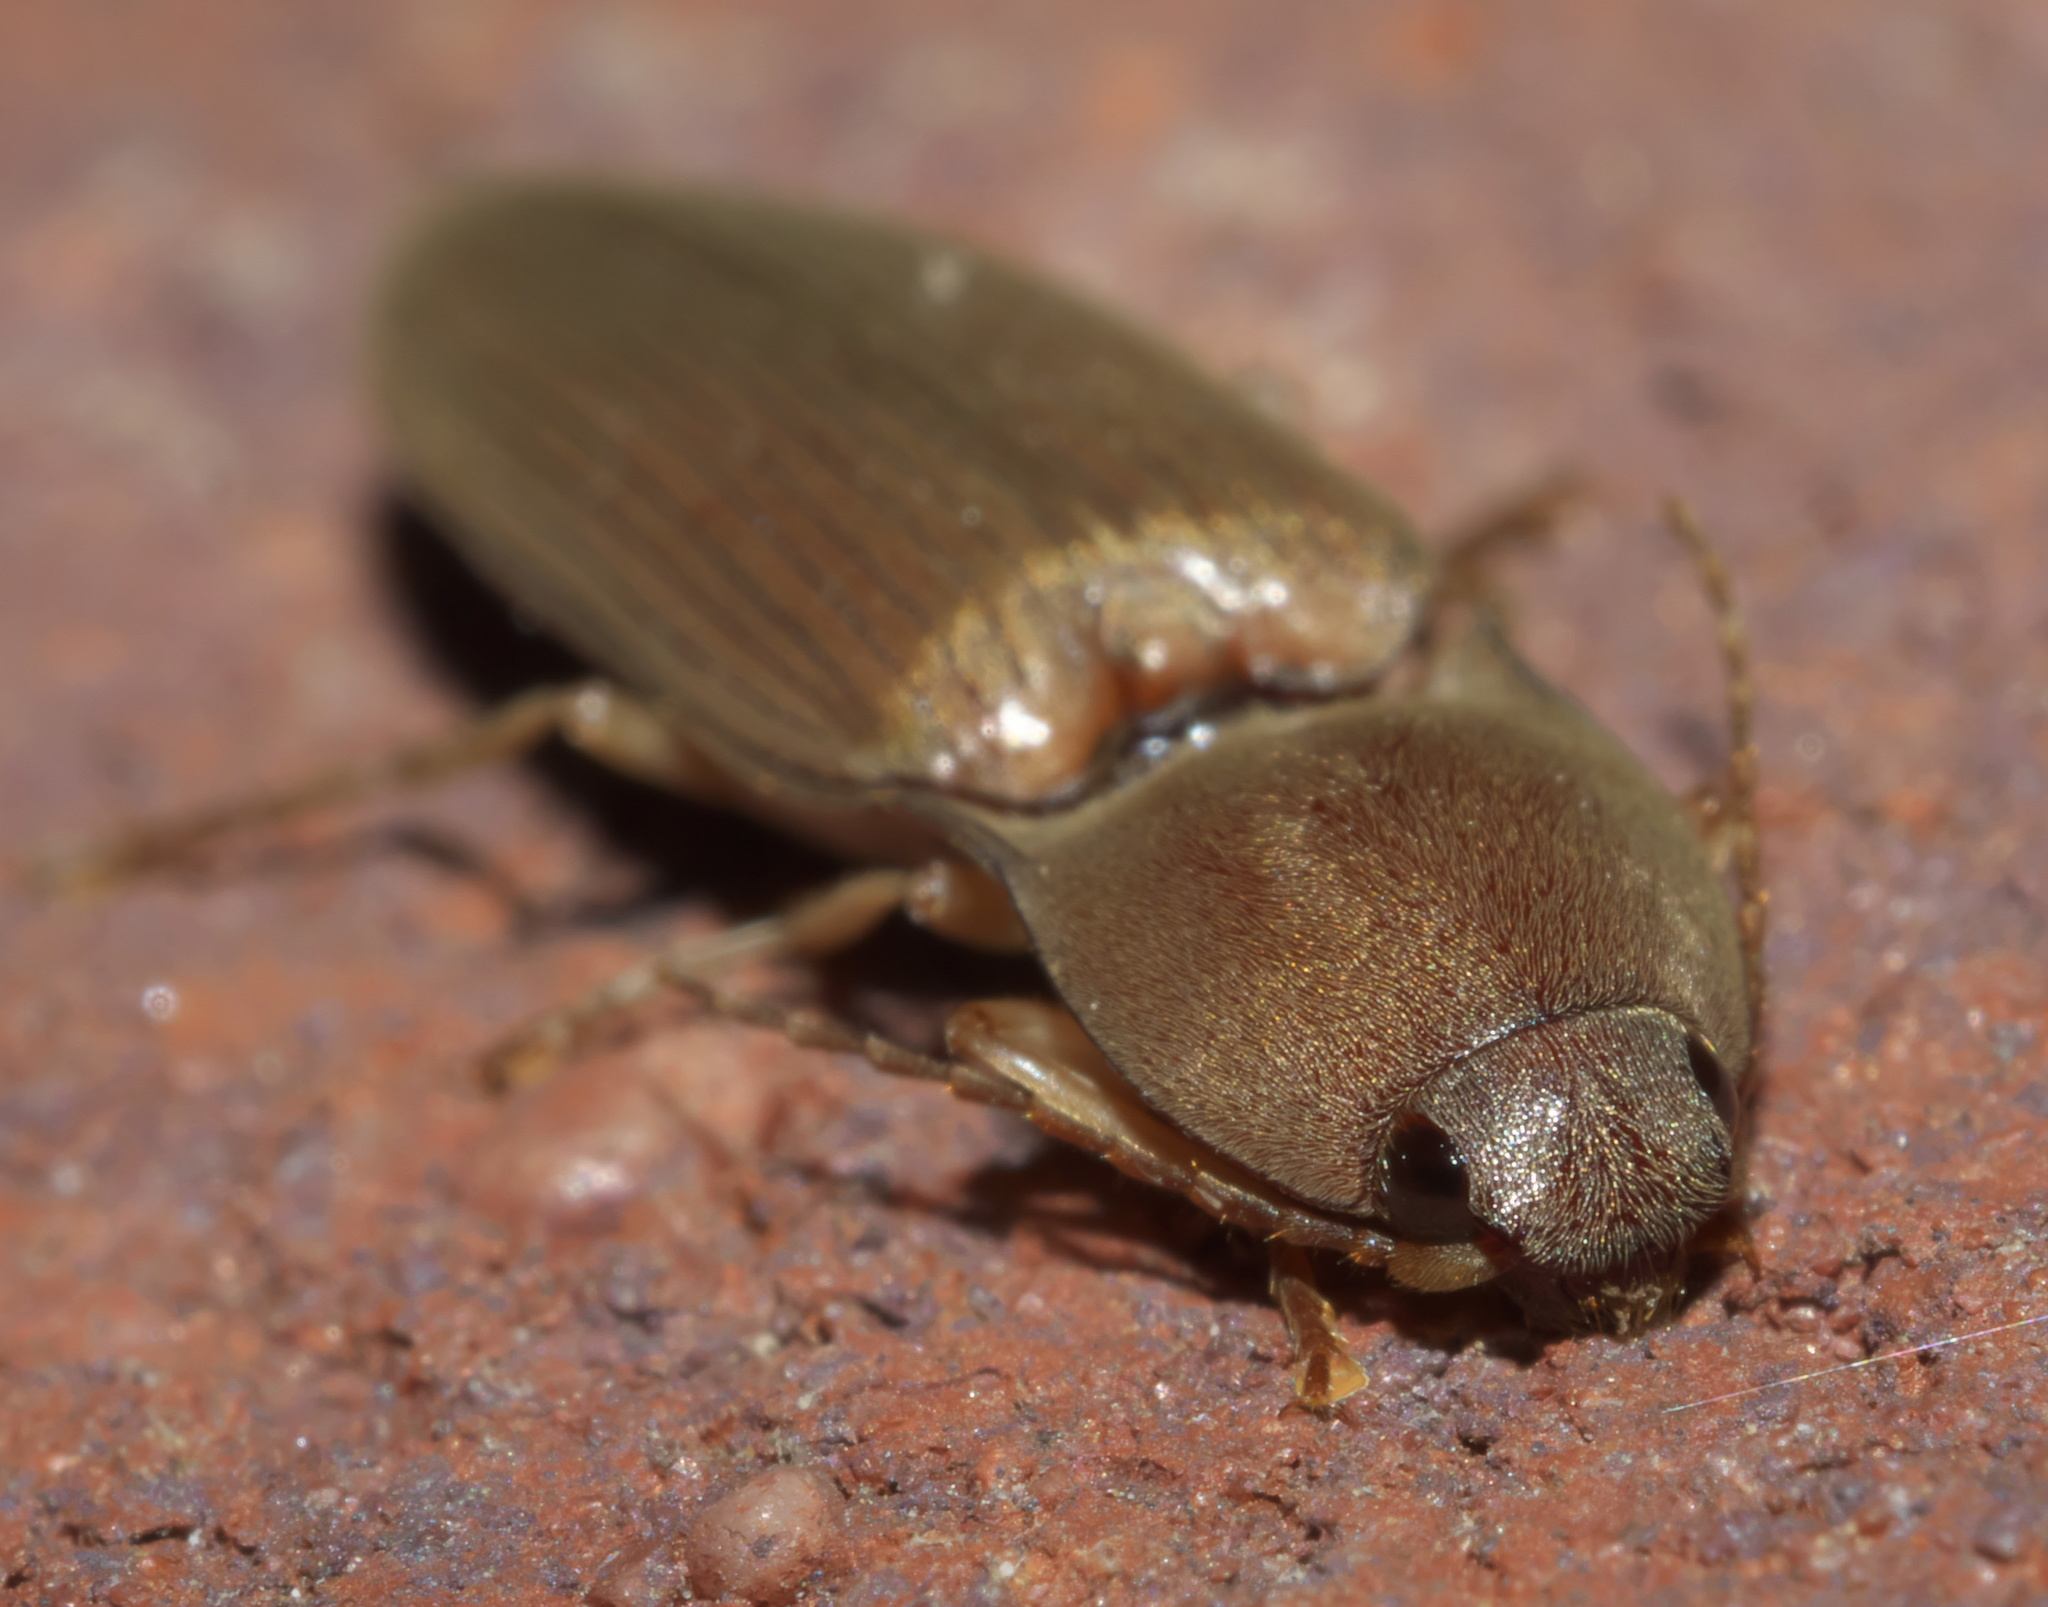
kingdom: Animalia
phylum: Arthropoda
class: Insecta
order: Coleoptera
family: Elateridae
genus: Monocrepidius
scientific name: Monocrepidius lividus
